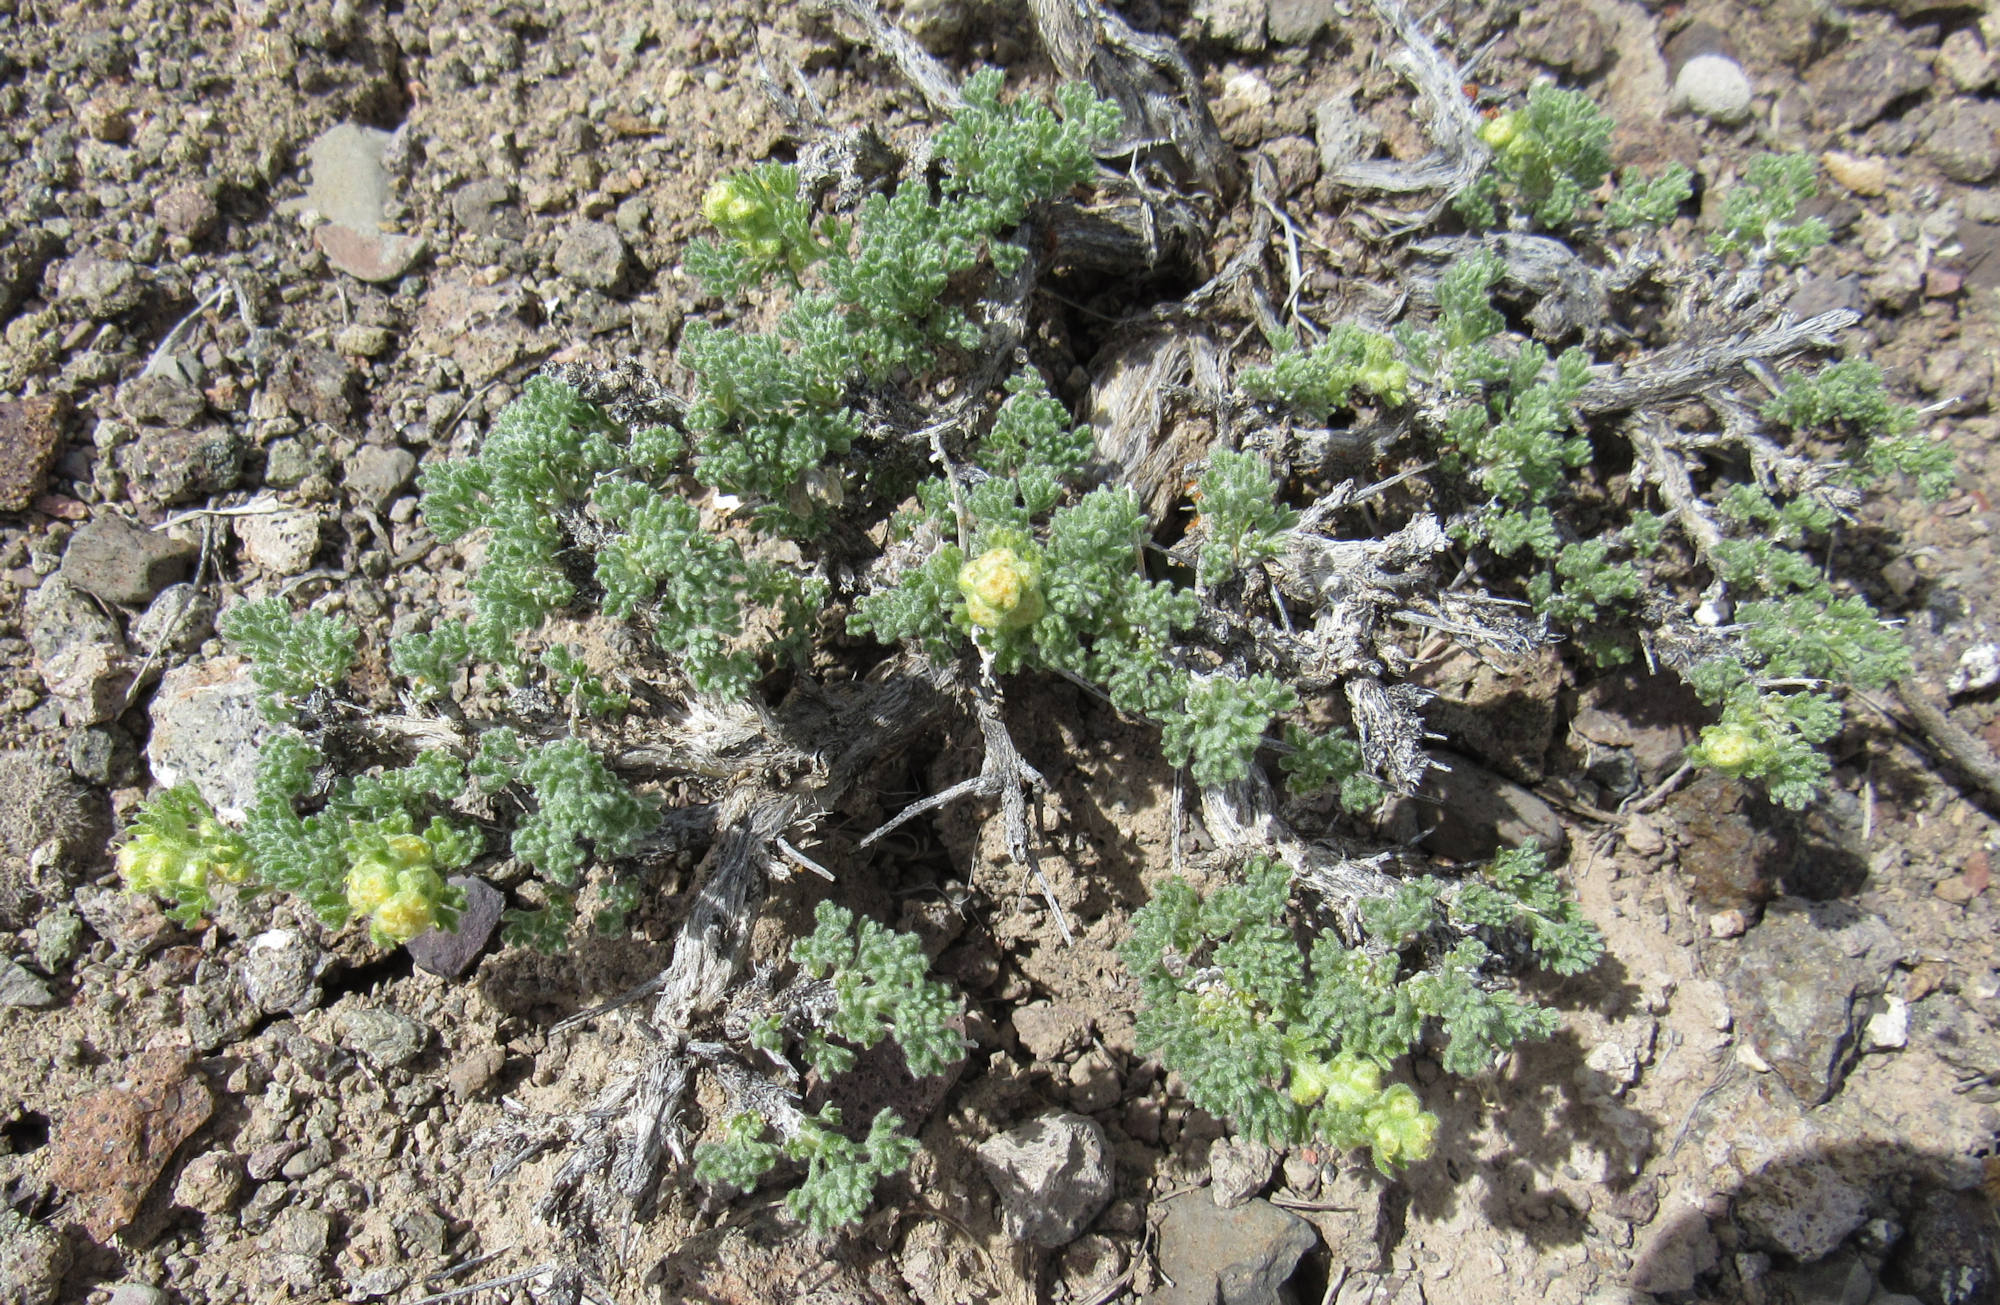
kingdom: Plantae
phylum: Tracheophyta
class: Magnoliopsida
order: Asterales
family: Asteraceae
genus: Artemisia
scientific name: Artemisia spinescens
